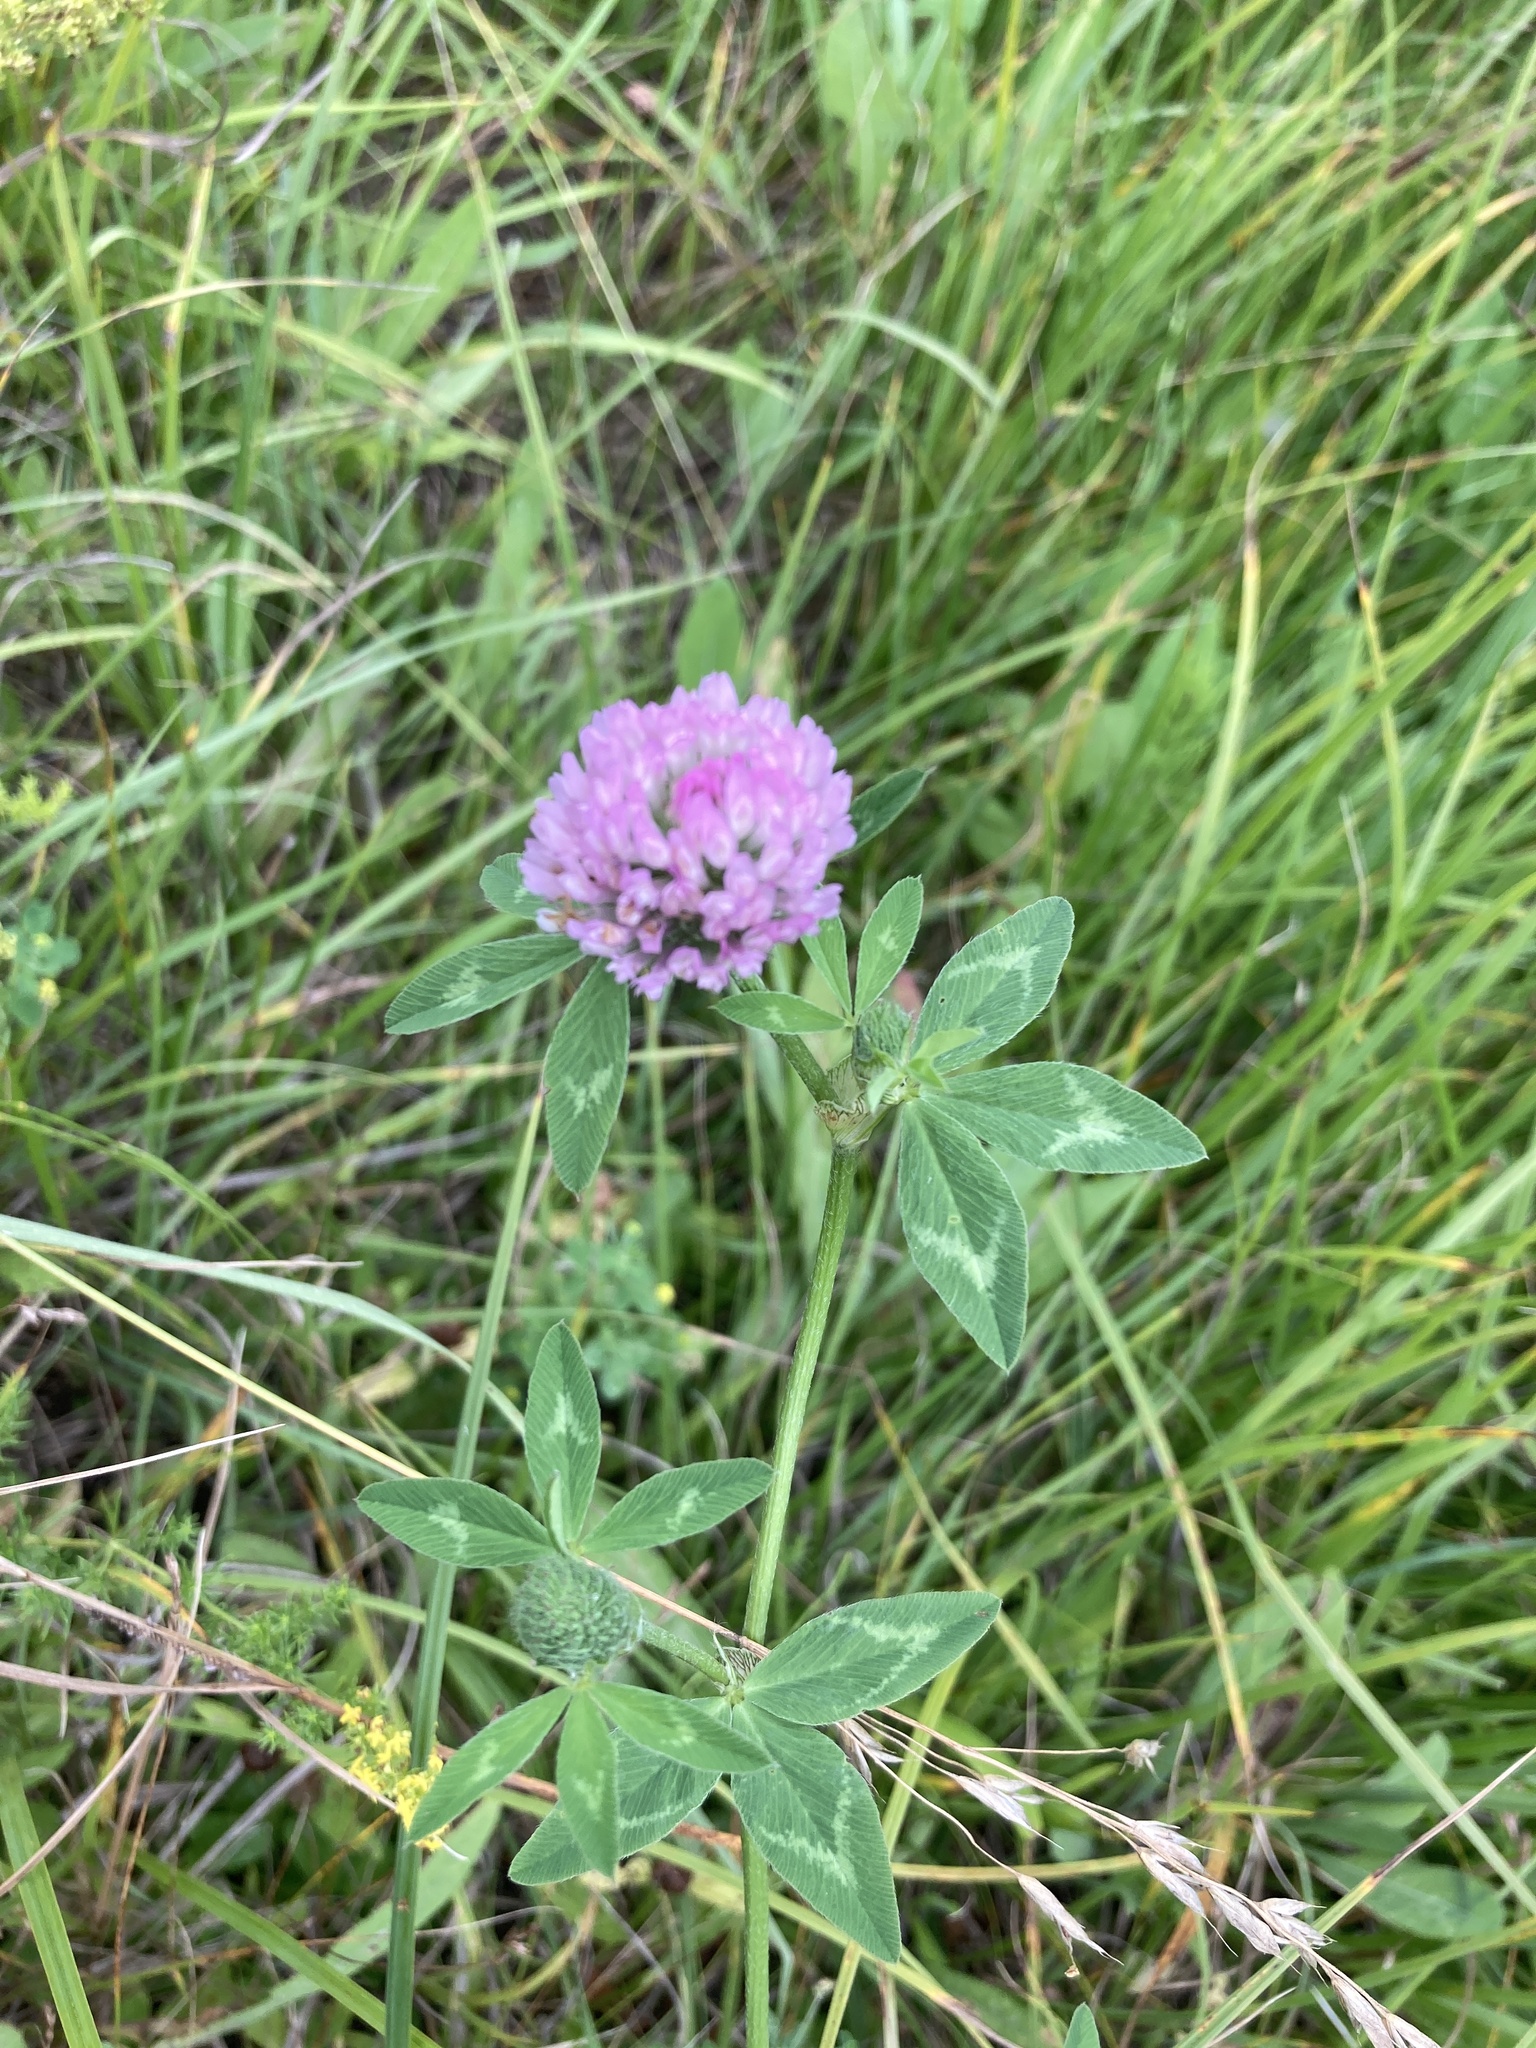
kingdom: Plantae
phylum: Tracheophyta
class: Magnoliopsida
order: Fabales
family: Fabaceae
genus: Trifolium
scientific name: Trifolium pratense
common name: Red clover
